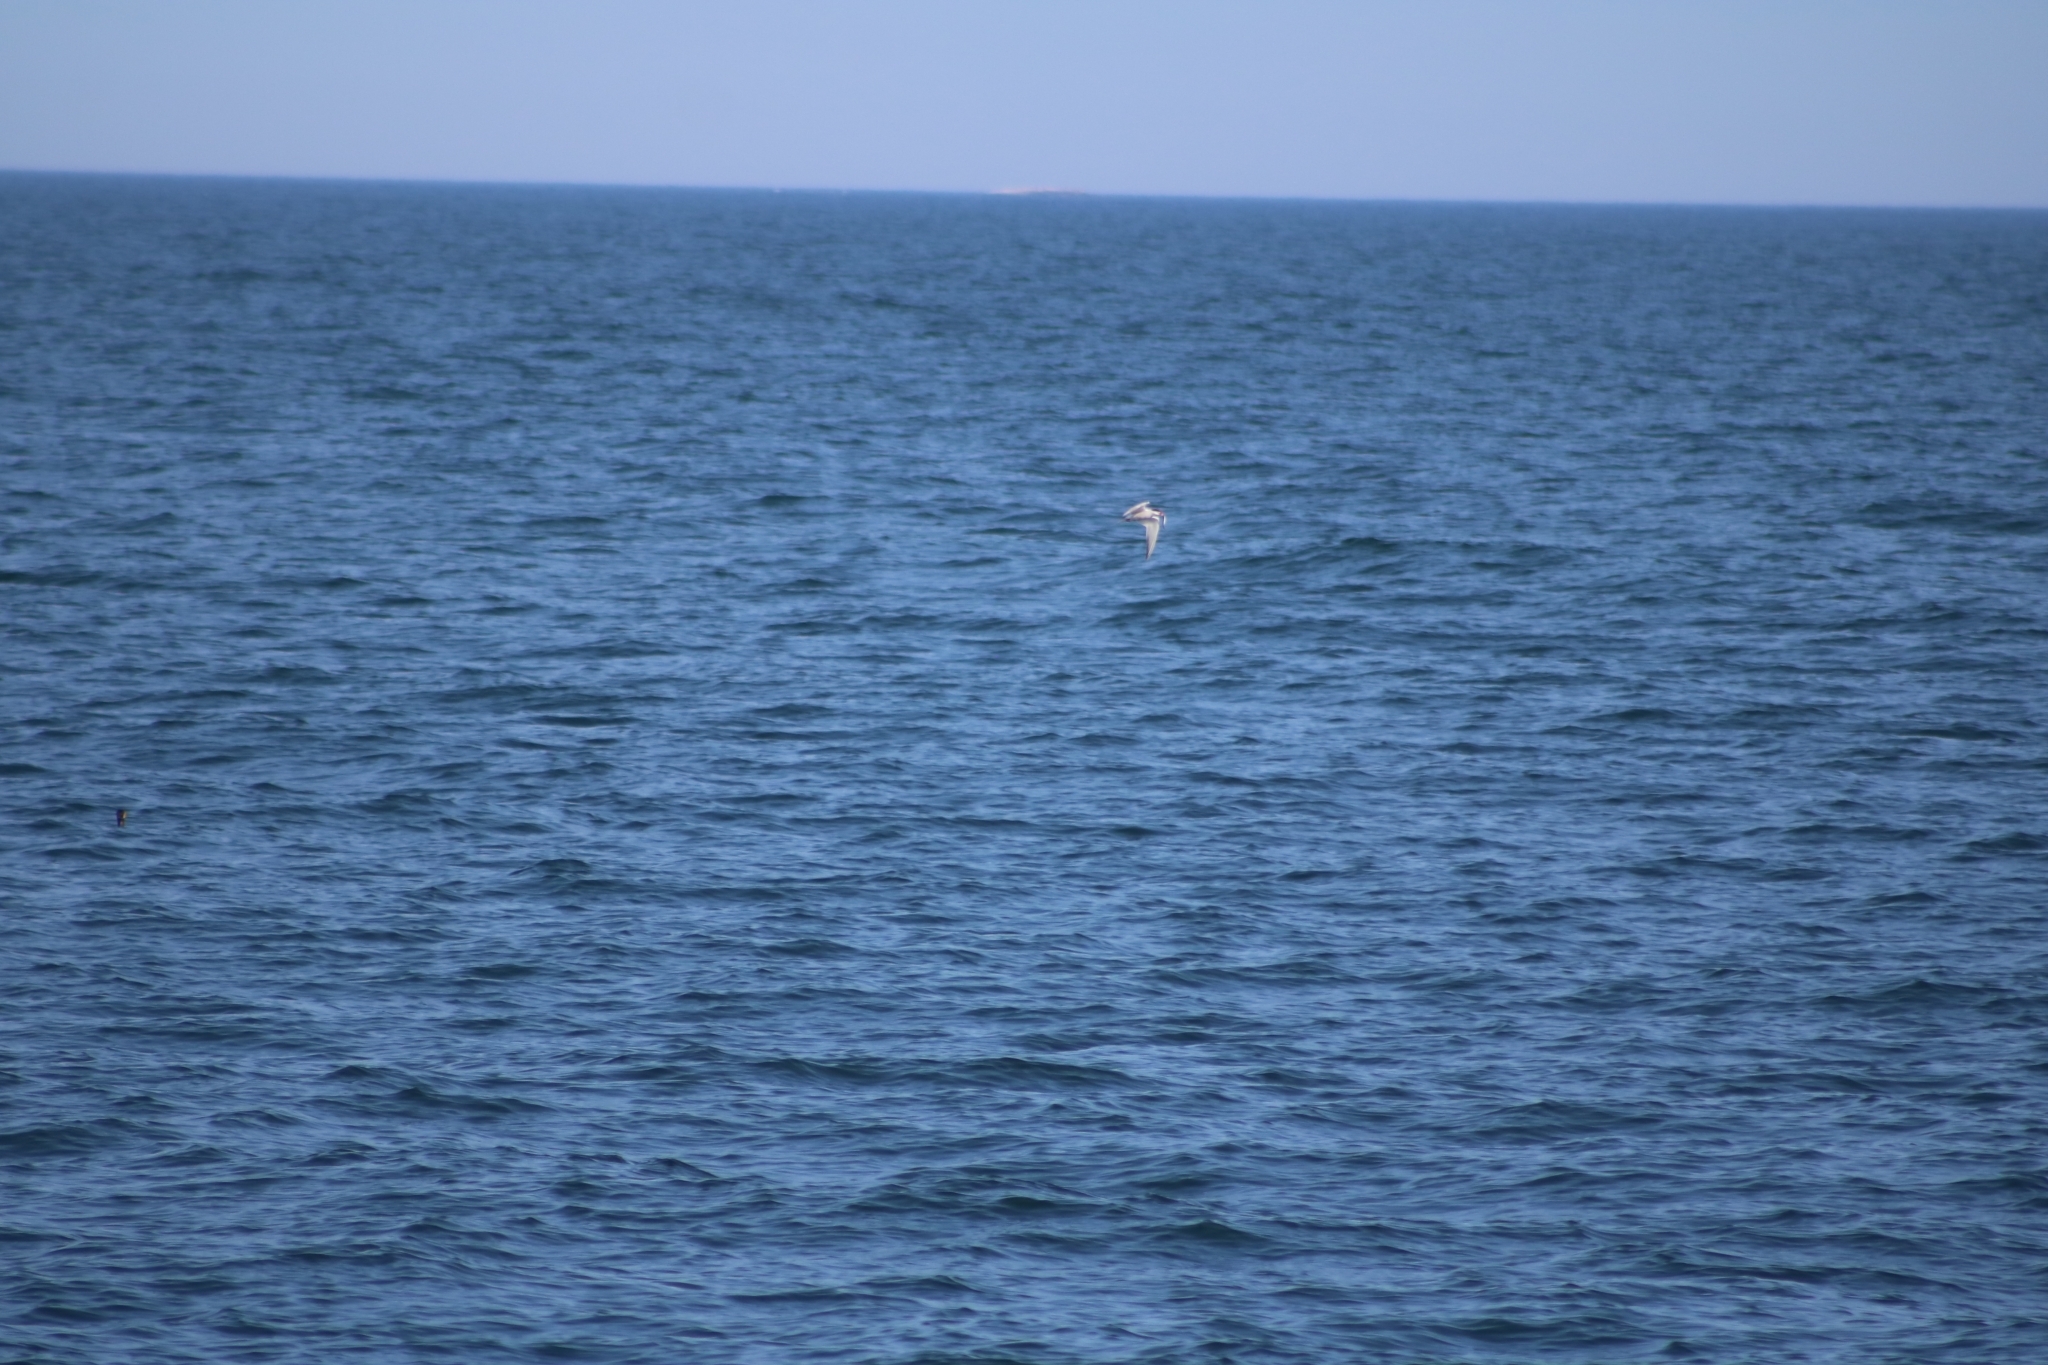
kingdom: Animalia
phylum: Chordata
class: Aves
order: Charadriiformes
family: Laridae
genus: Sterna
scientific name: Sterna hirundo
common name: Common tern
